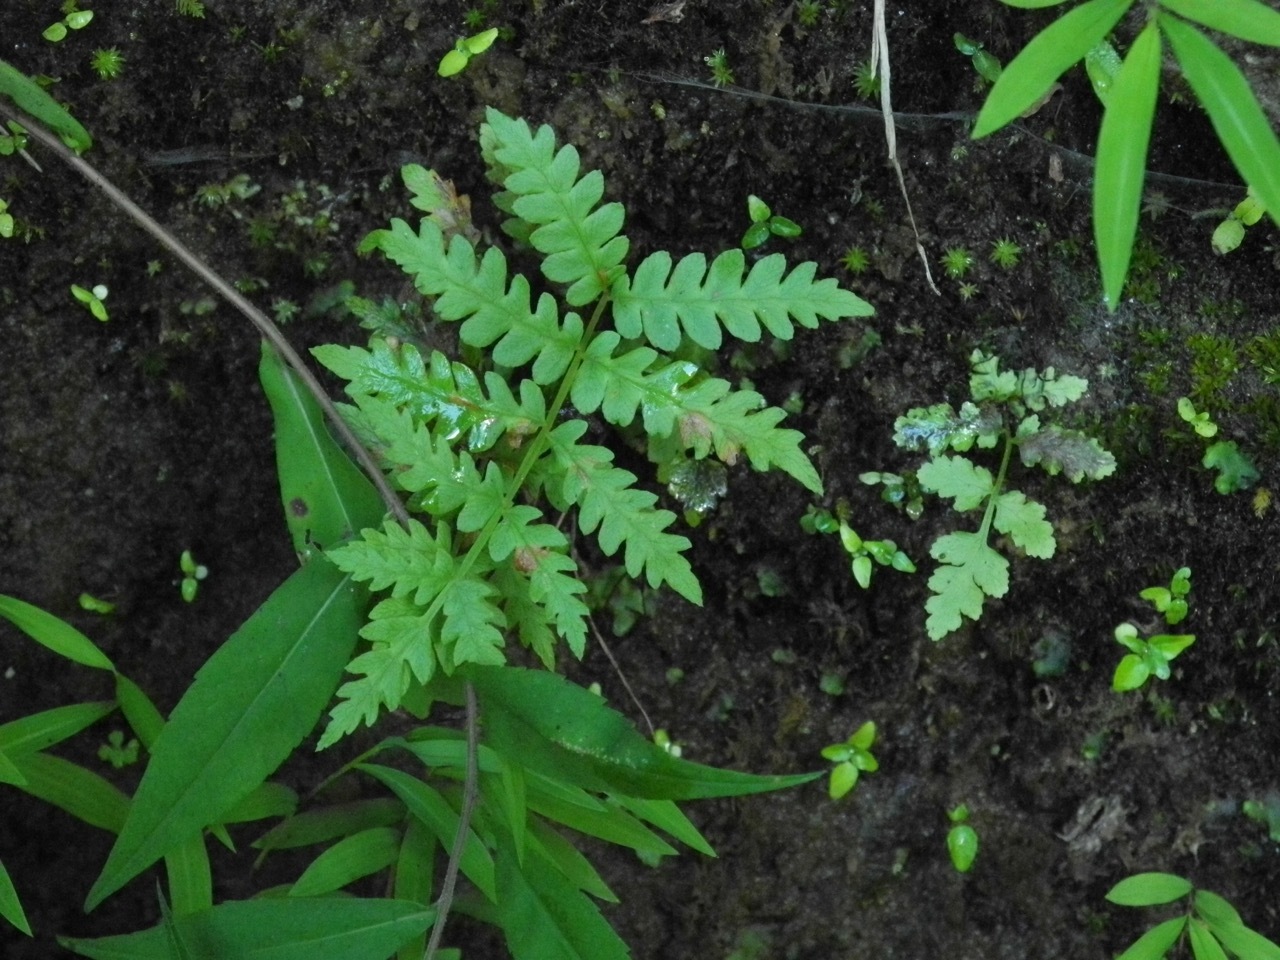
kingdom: Plantae
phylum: Tracheophyta
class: Polypodiopsida
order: Polypodiales
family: Thelypteridaceae
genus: Phegopteris
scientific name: Phegopteris connectilis
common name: Beech fern
